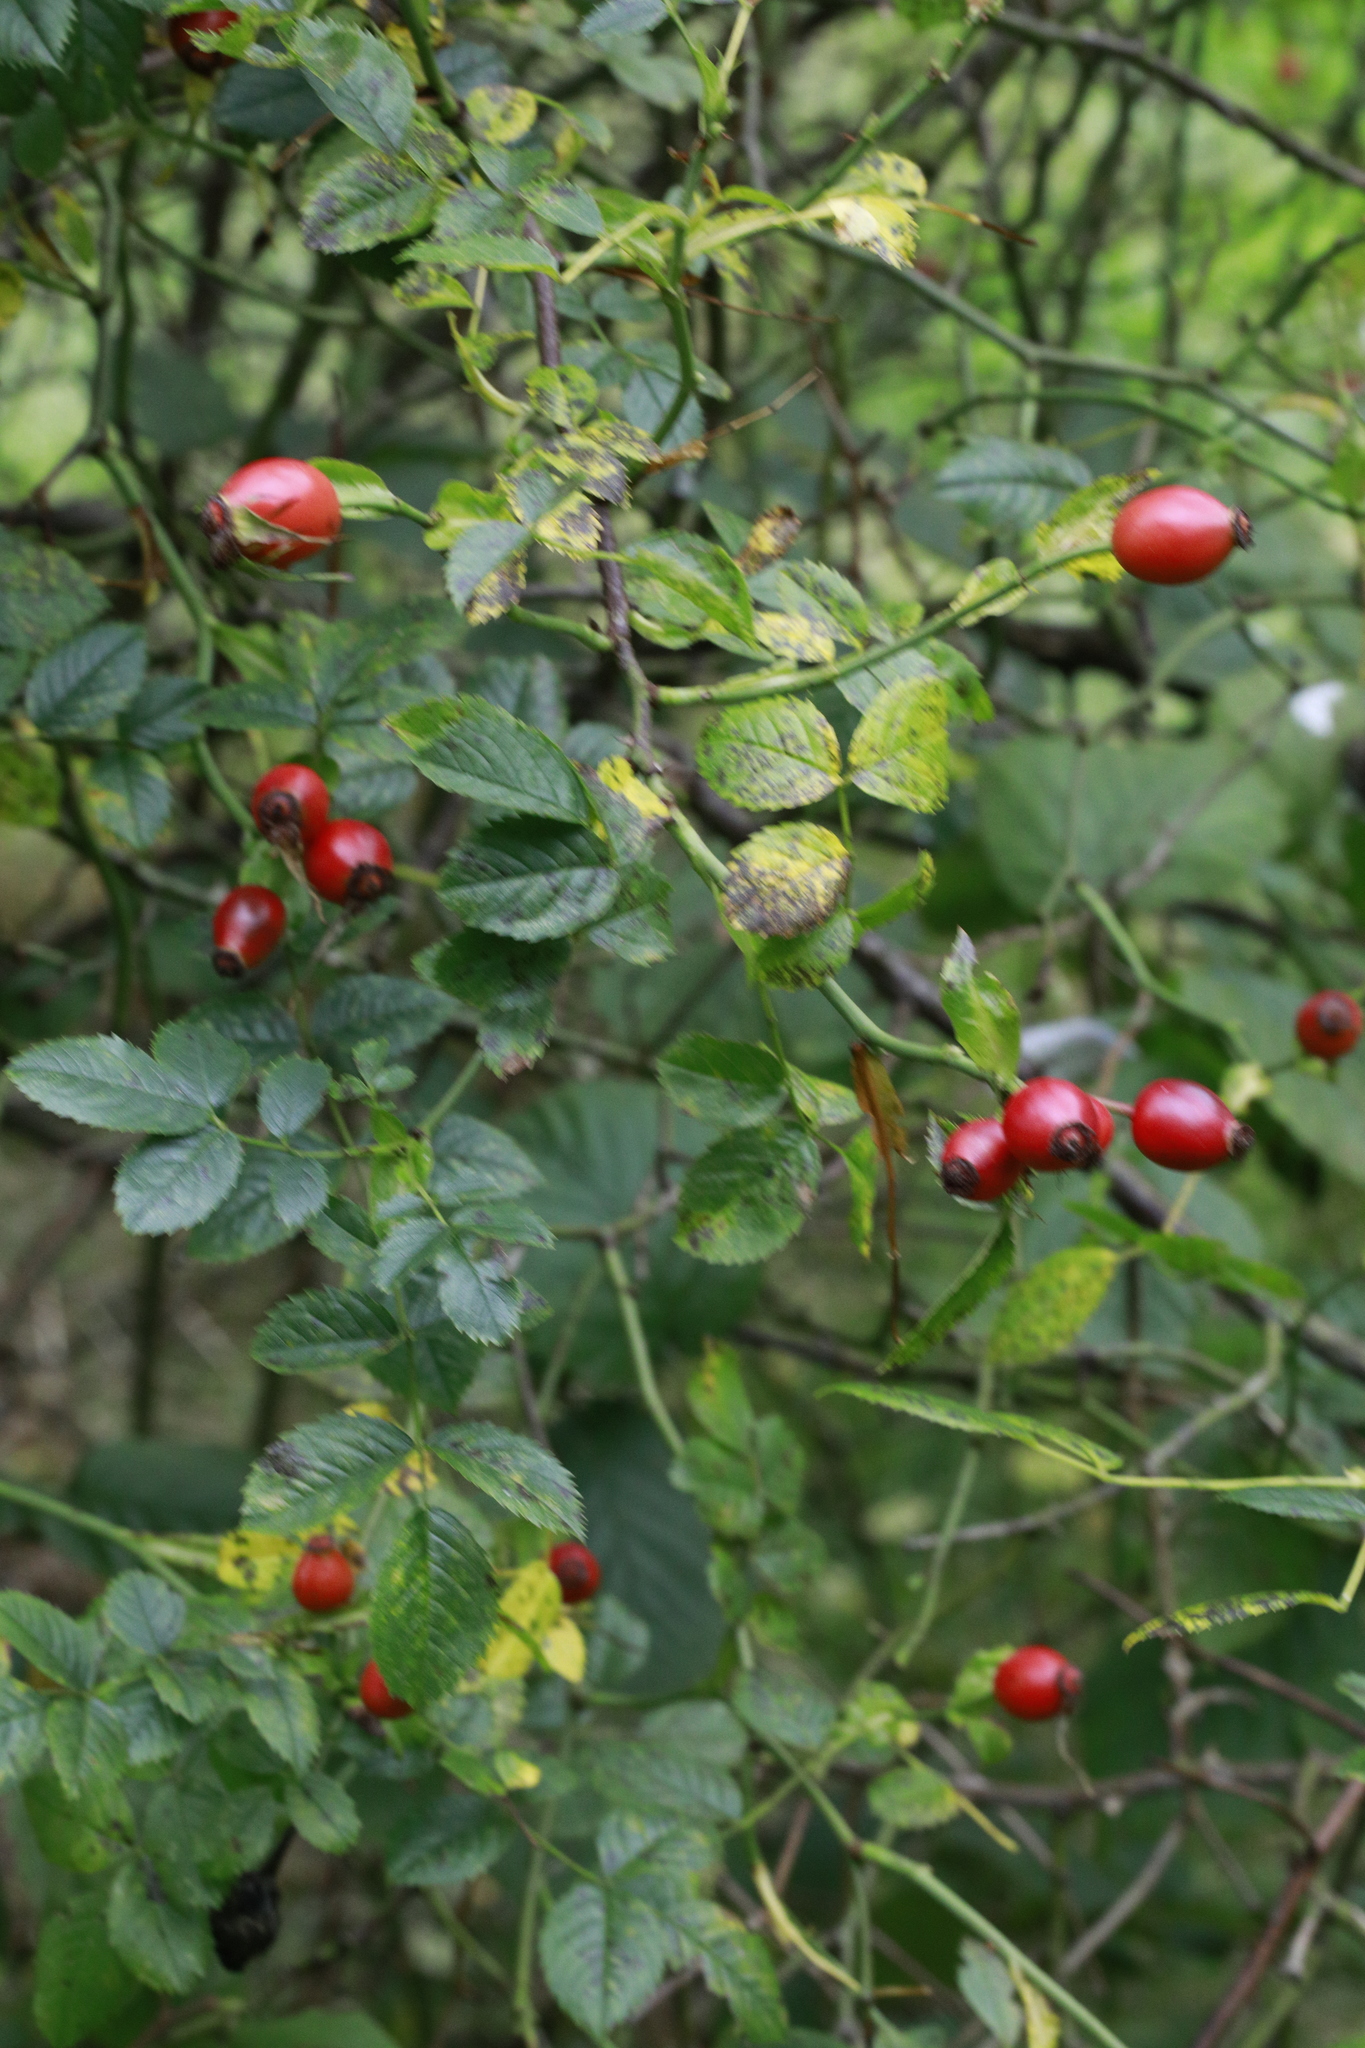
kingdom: Plantae
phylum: Tracheophyta
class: Magnoliopsida
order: Rosales
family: Rosaceae
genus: Rosa
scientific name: Rosa canina
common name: Dog rose
